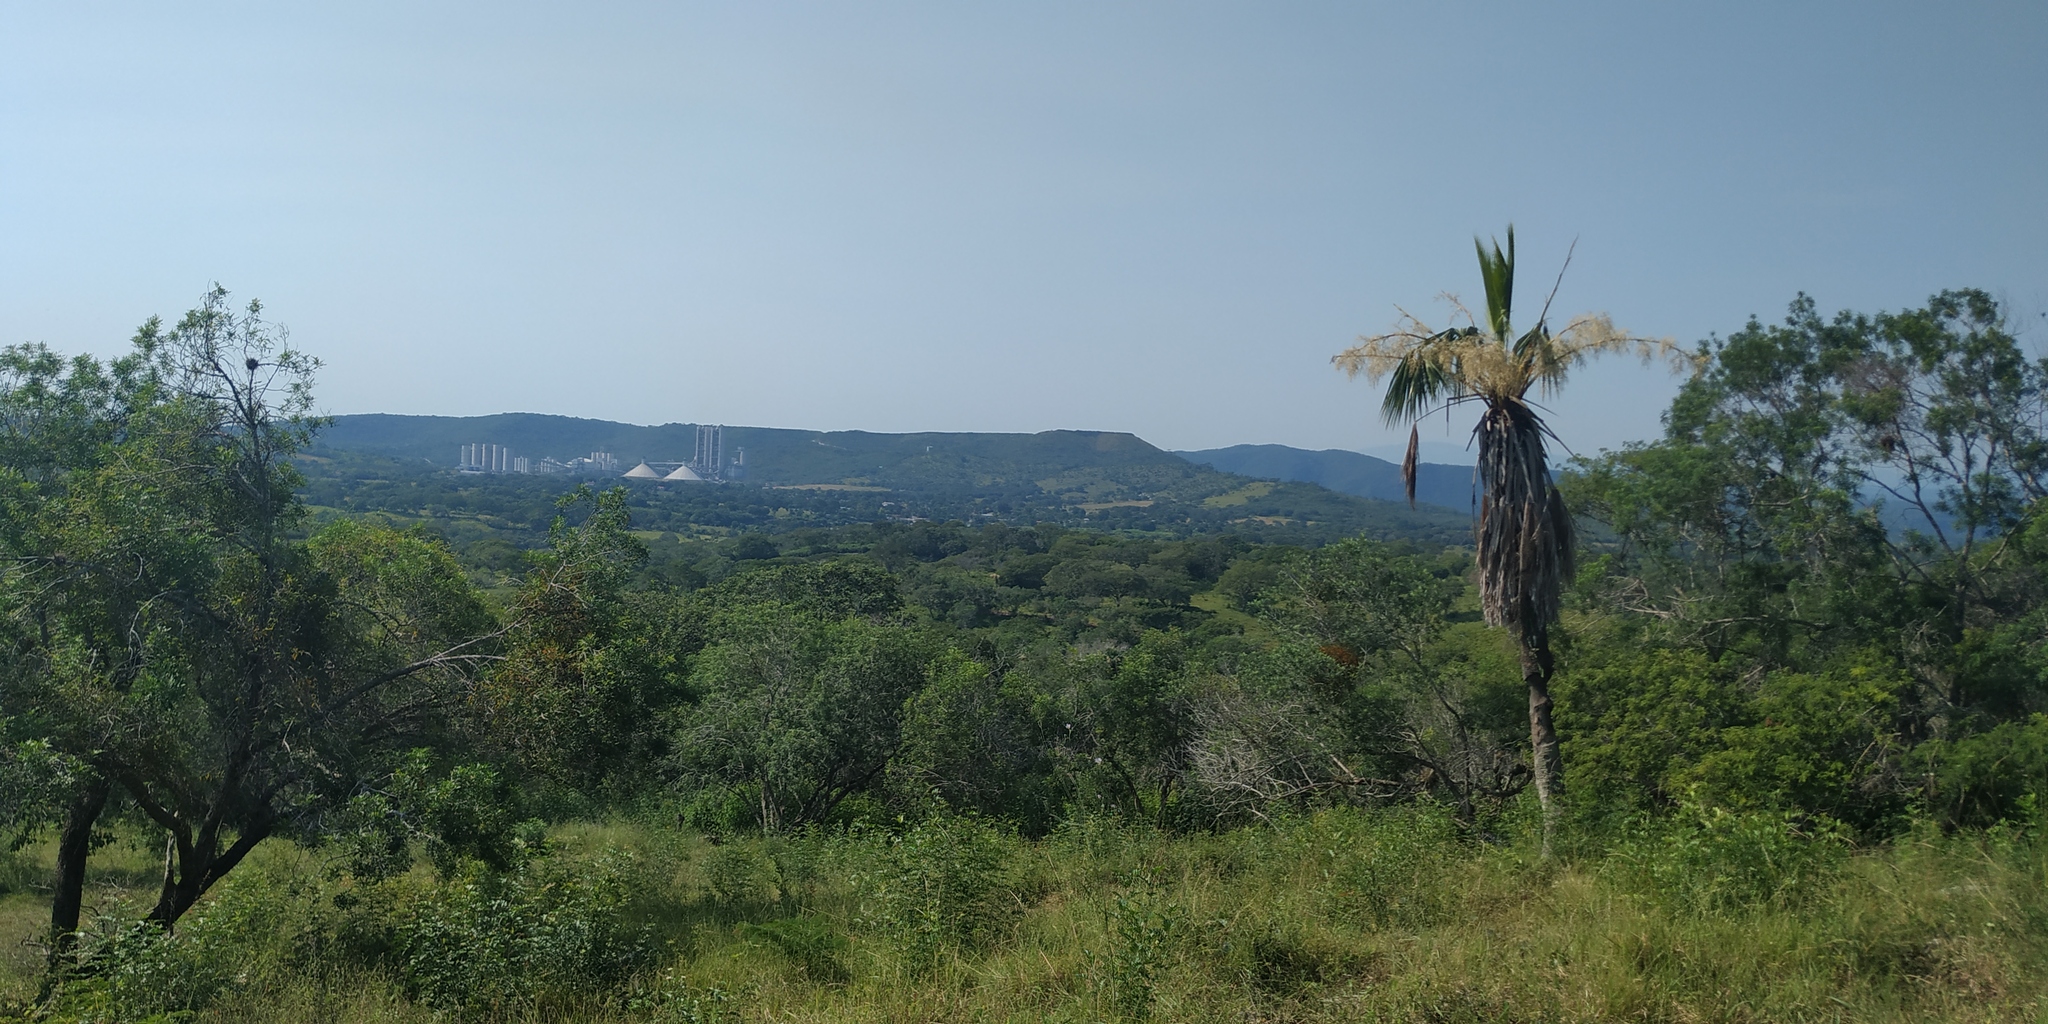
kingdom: Plantae
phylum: Tracheophyta
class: Liliopsida
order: Arecales
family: Arecaceae
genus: Brahea
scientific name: Brahea dulcis
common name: Apak palm
